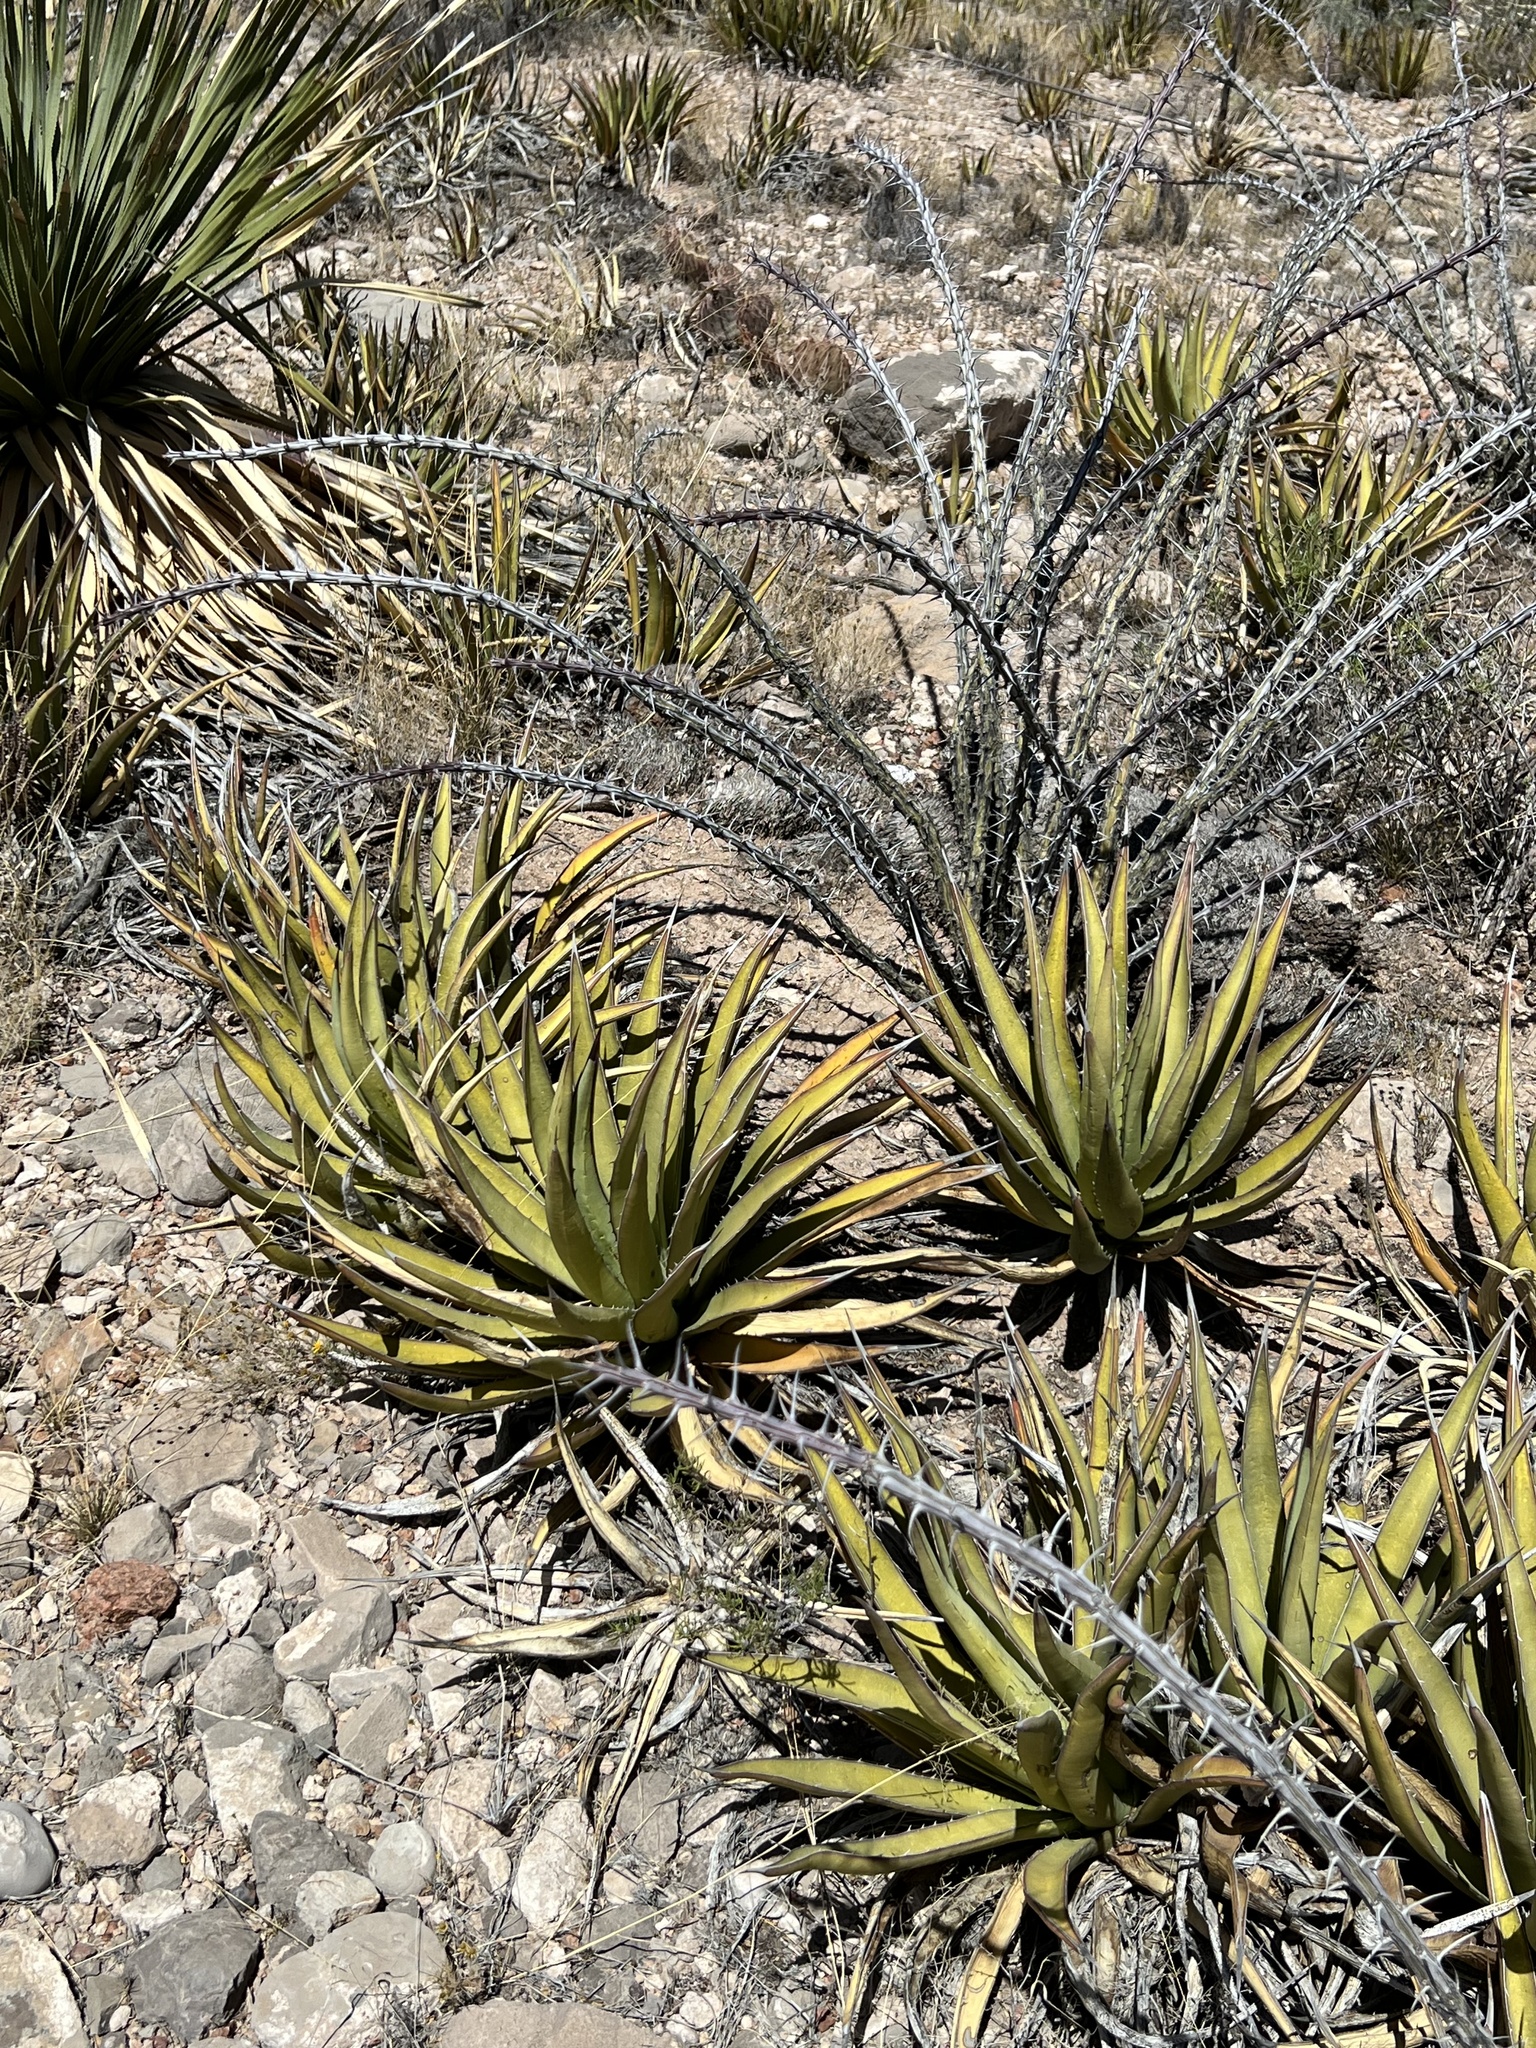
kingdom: Plantae
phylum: Tracheophyta
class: Liliopsida
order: Asparagales
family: Asparagaceae
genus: Agave
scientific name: Agave lechuguilla
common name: Lecheguilla agave
